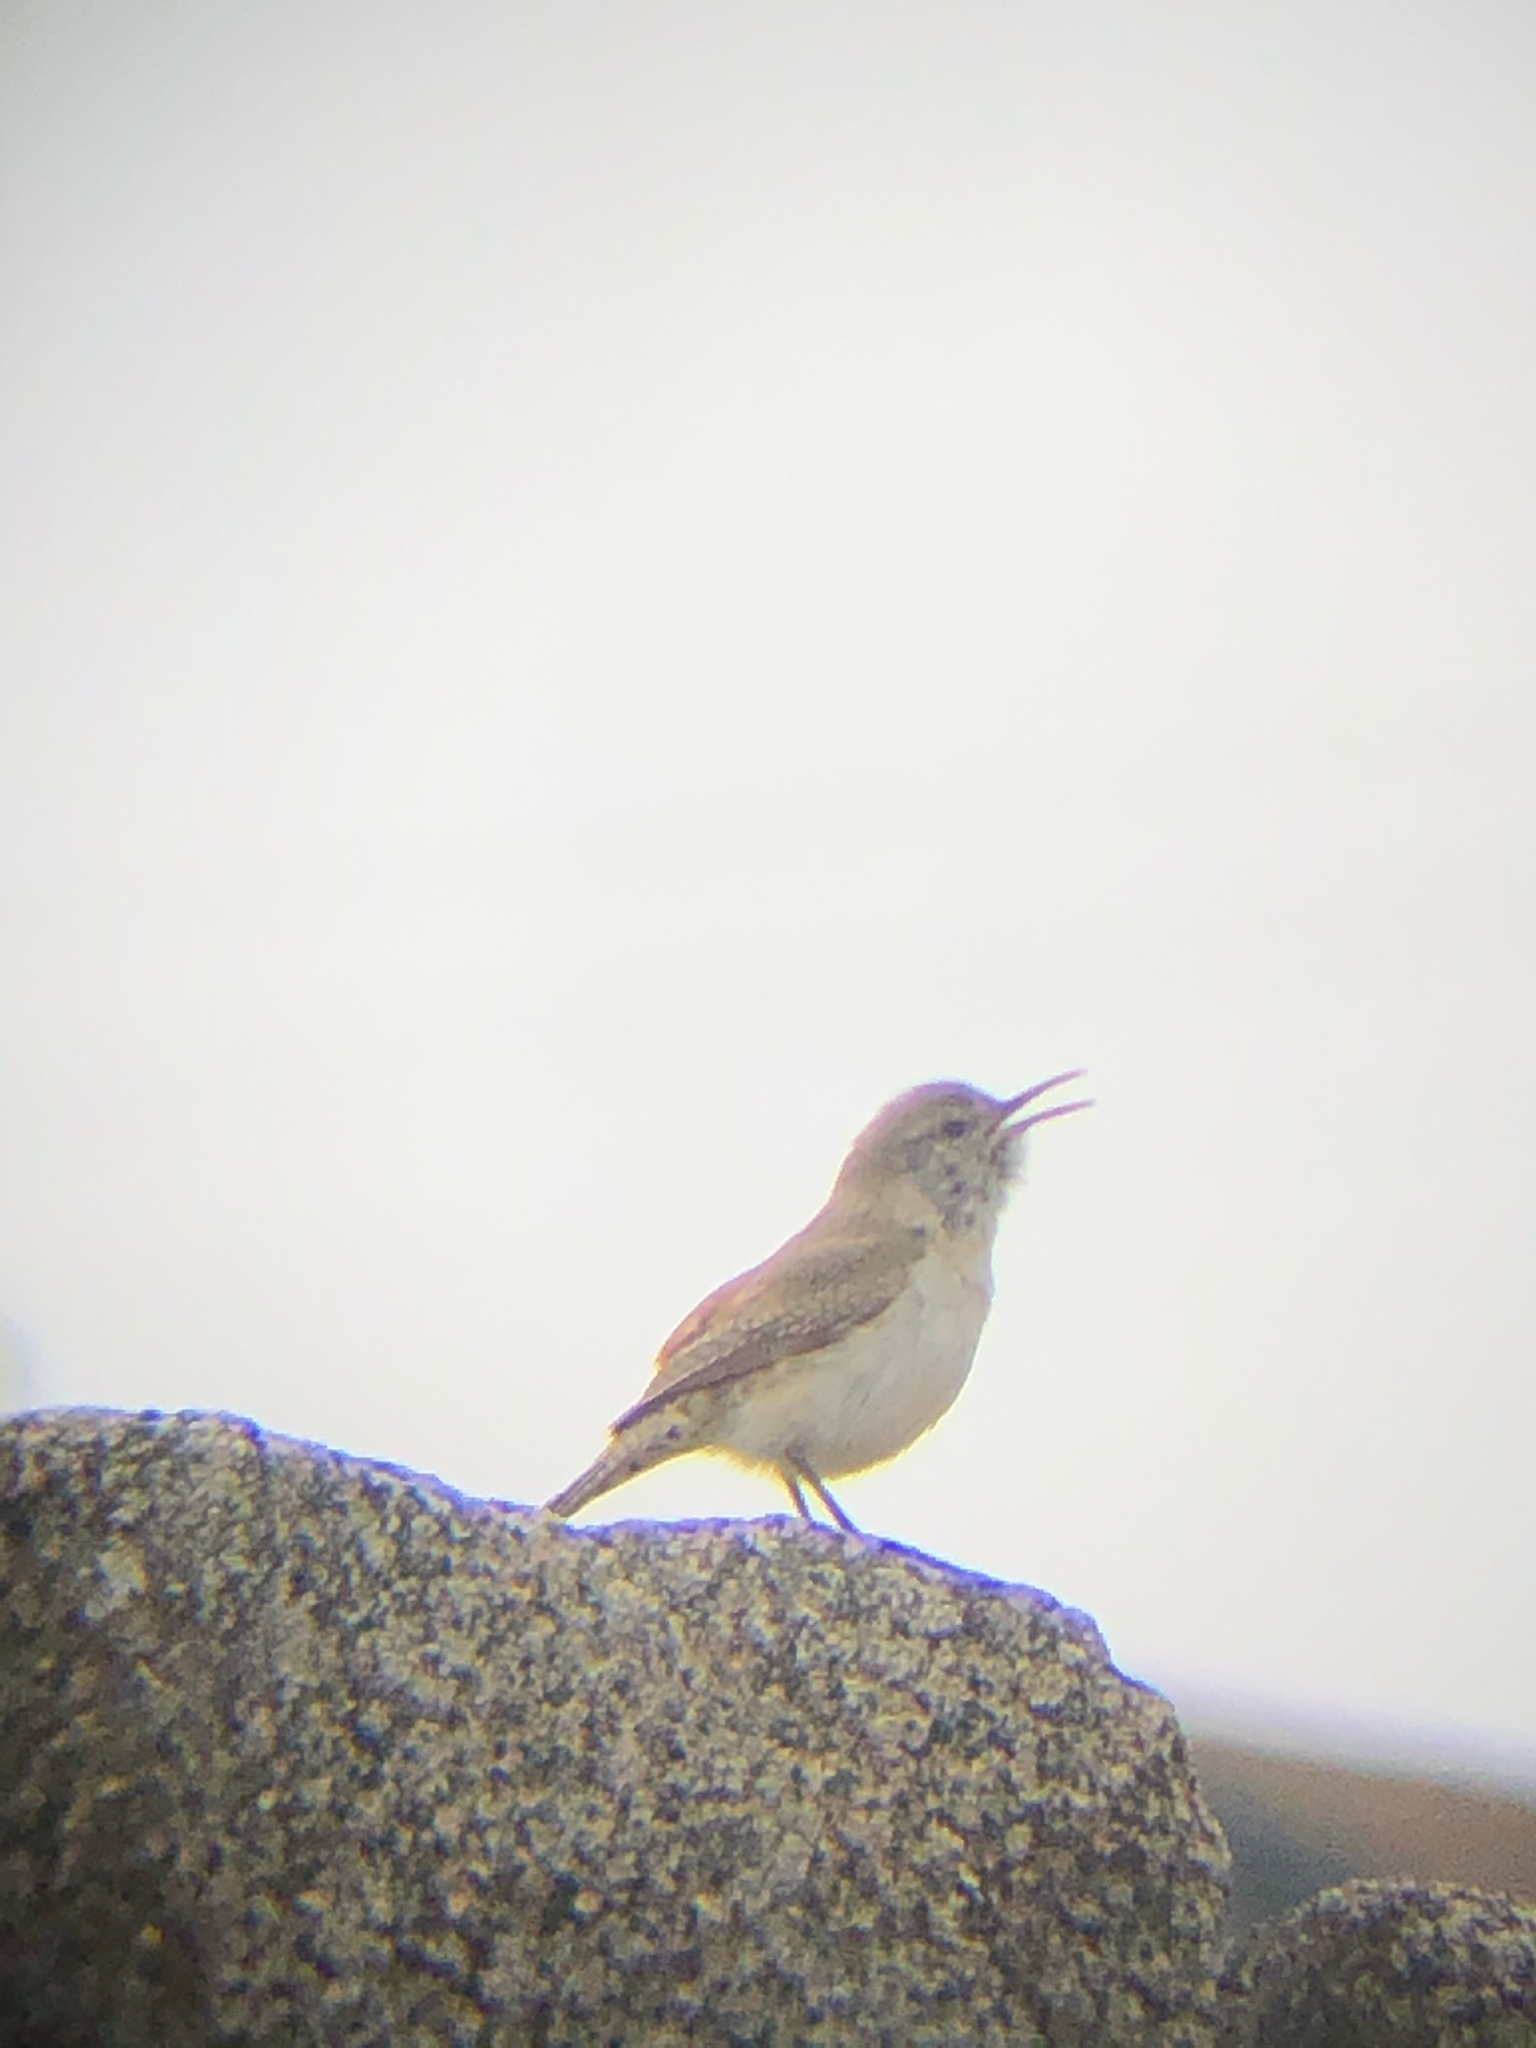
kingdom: Animalia
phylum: Chordata
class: Aves
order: Passeriformes
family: Troglodytidae
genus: Salpinctes
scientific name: Salpinctes obsoletus
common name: Rock wren
